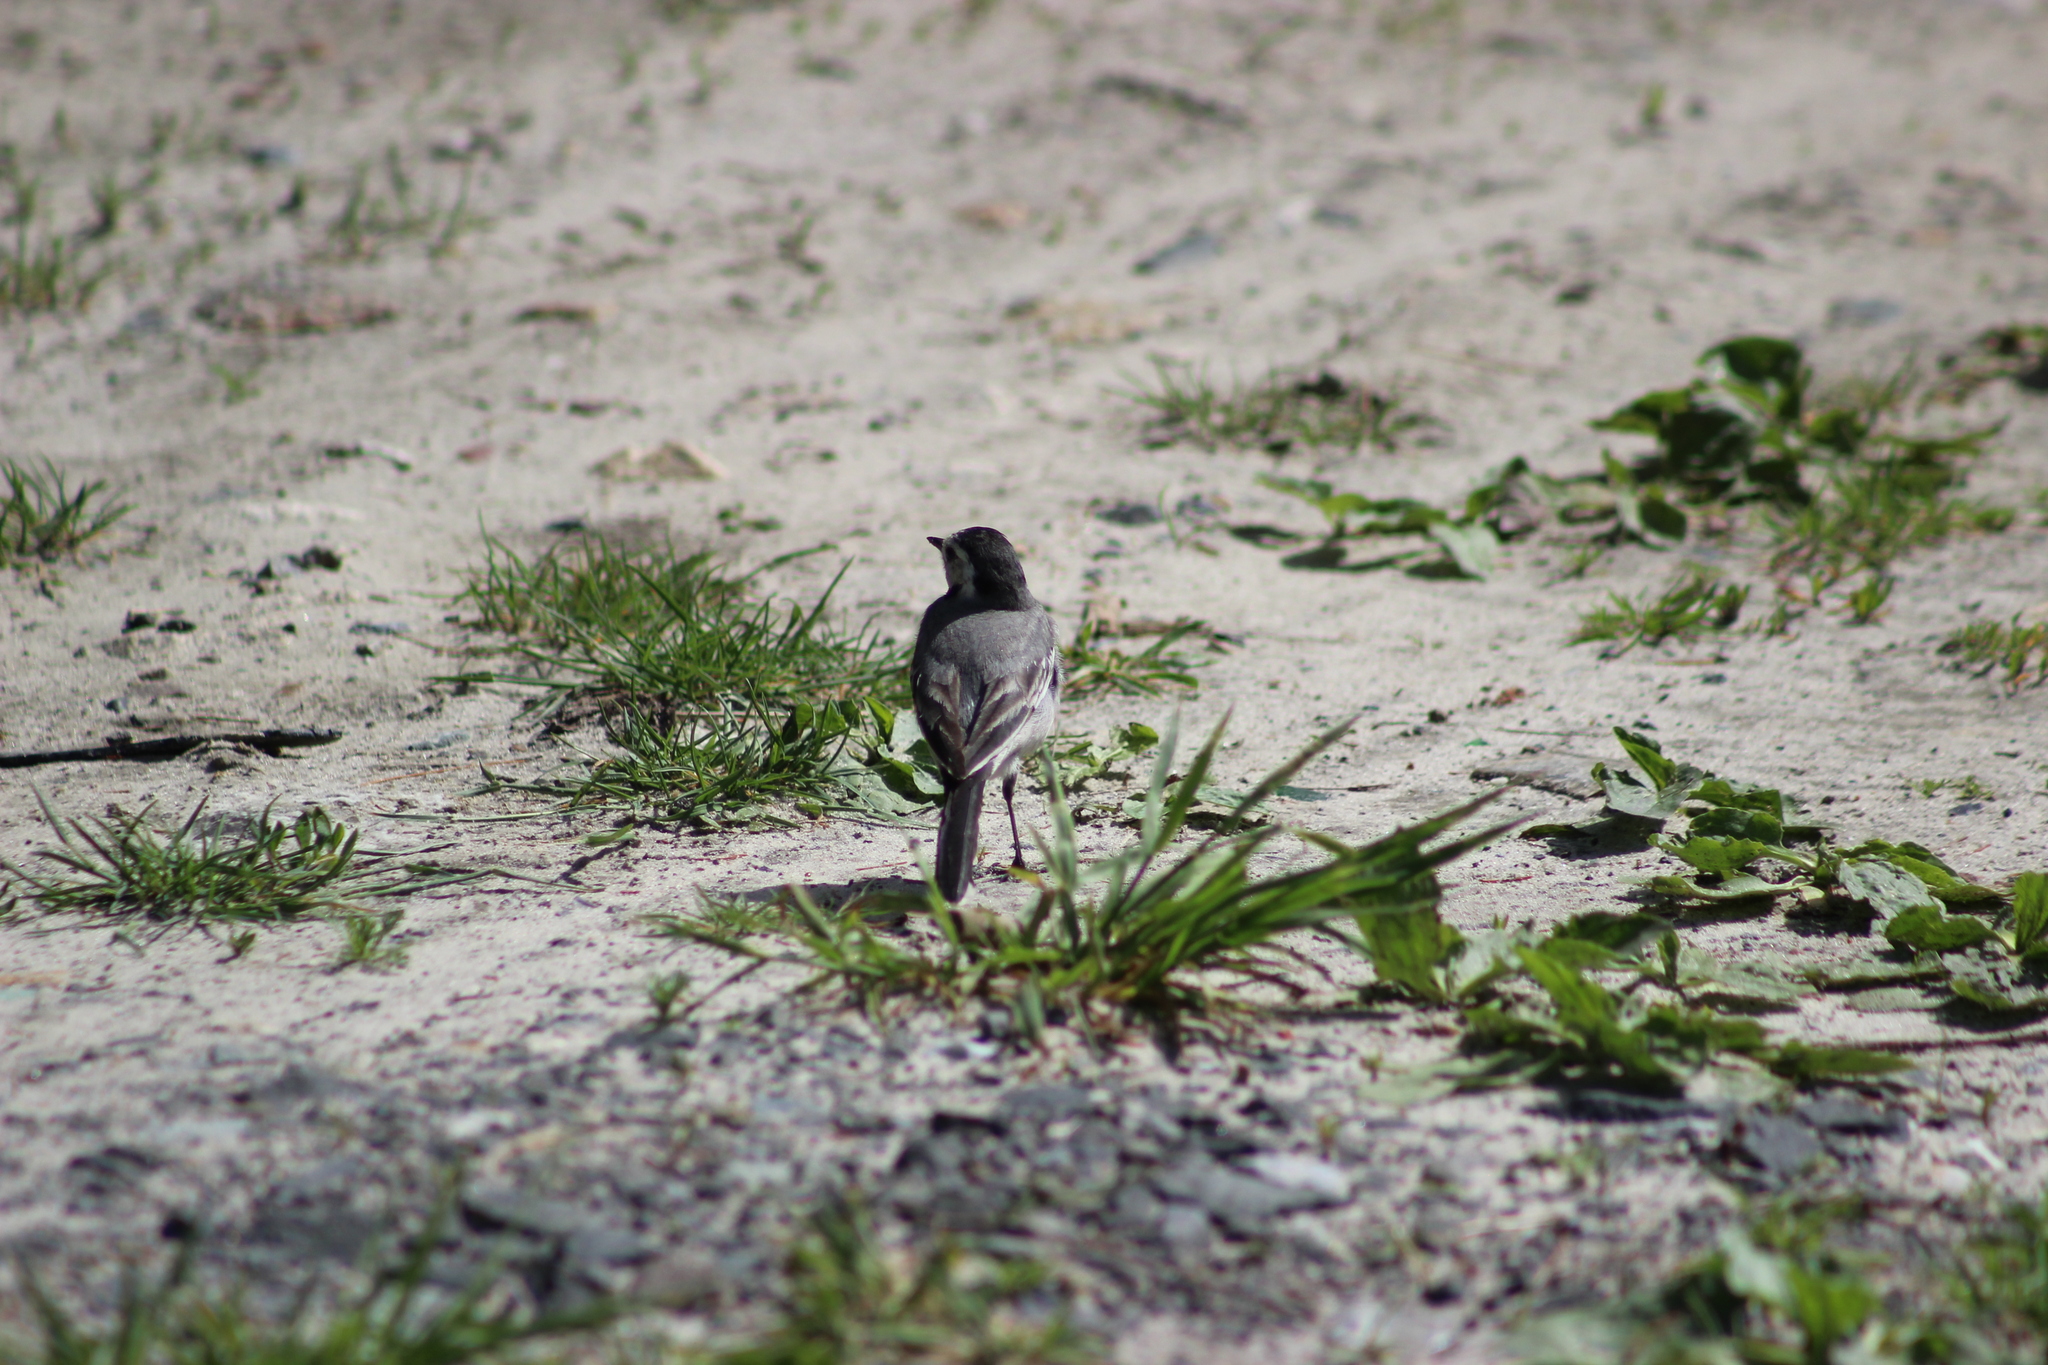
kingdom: Animalia
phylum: Chordata
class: Aves
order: Passeriformes
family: Motacillidae
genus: Motacilla
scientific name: Motacilla alba
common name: White wagtail
